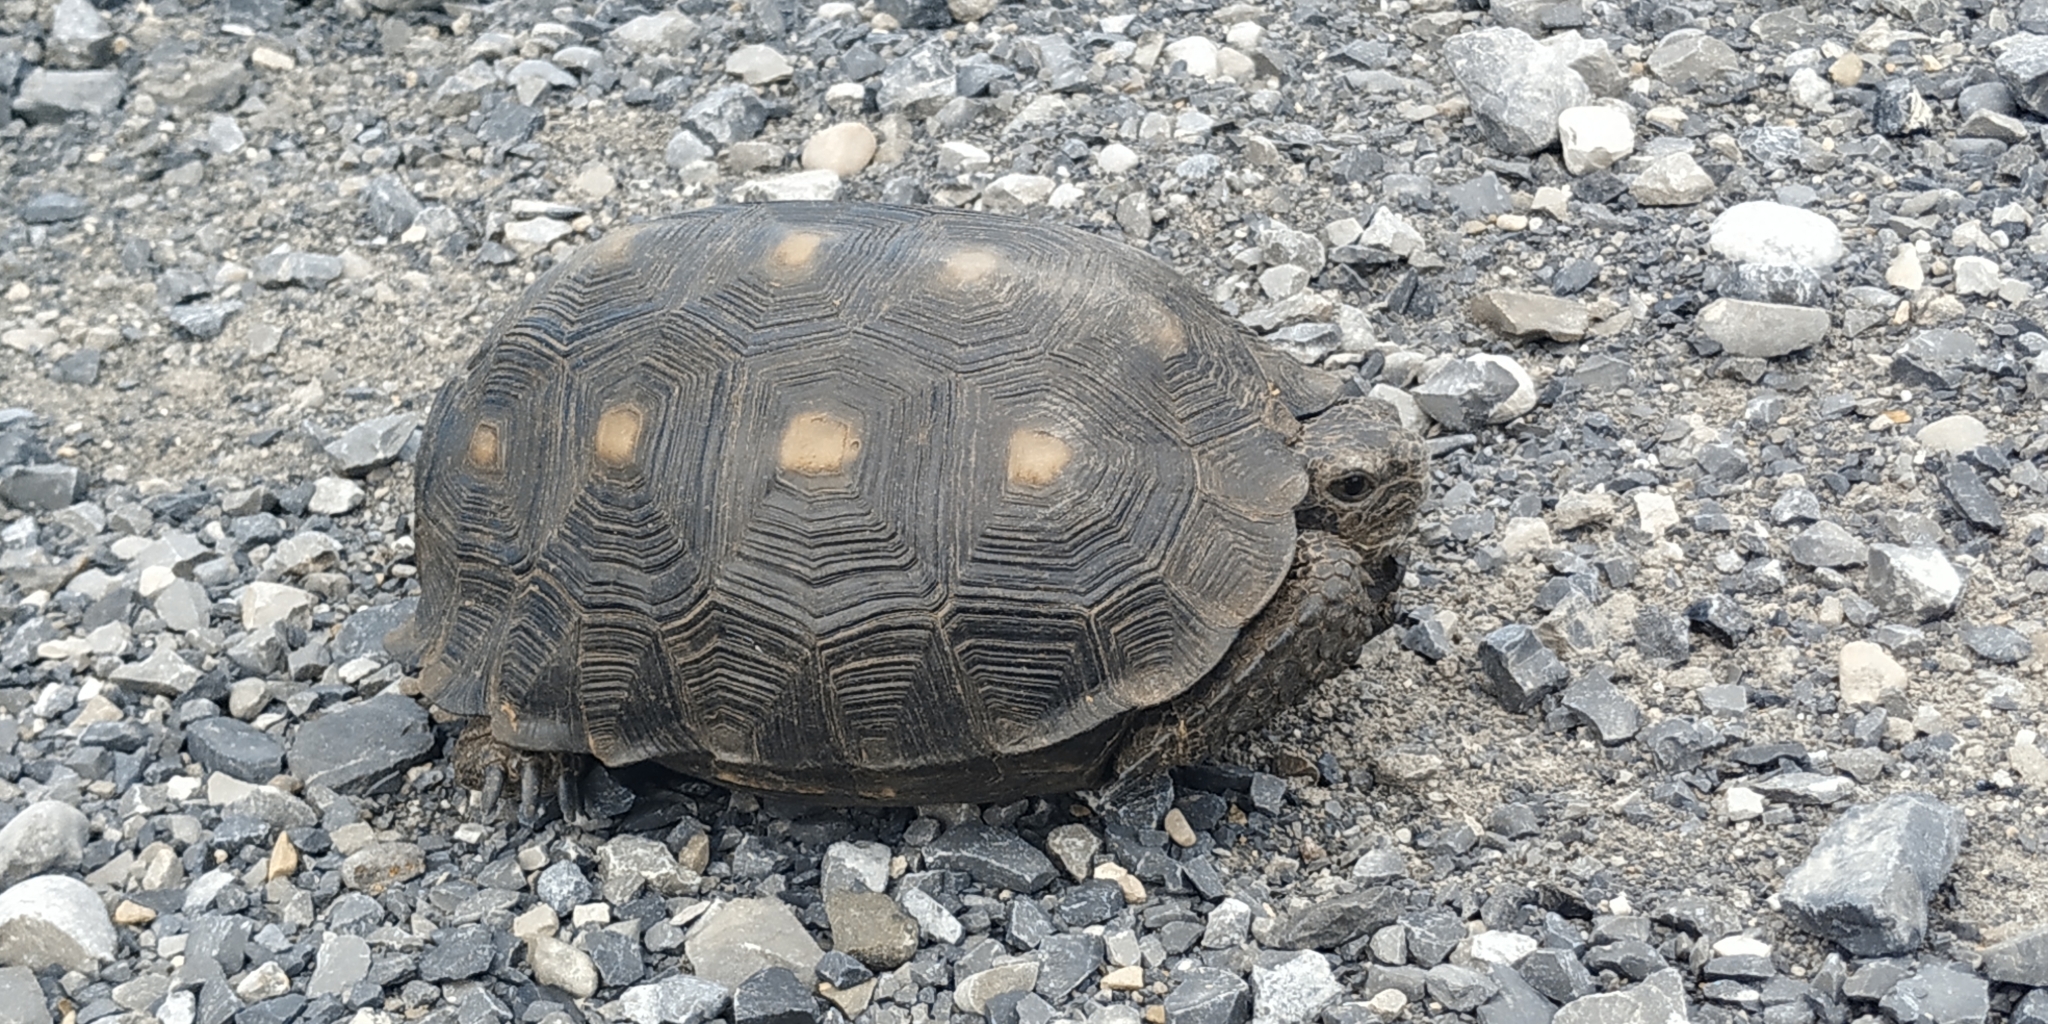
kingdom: Animalia
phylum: Chordata
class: Testudines
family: Testudinidae
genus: Gopherus
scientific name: Gopherus berlandieri
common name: Texas (gopher )tortoise
